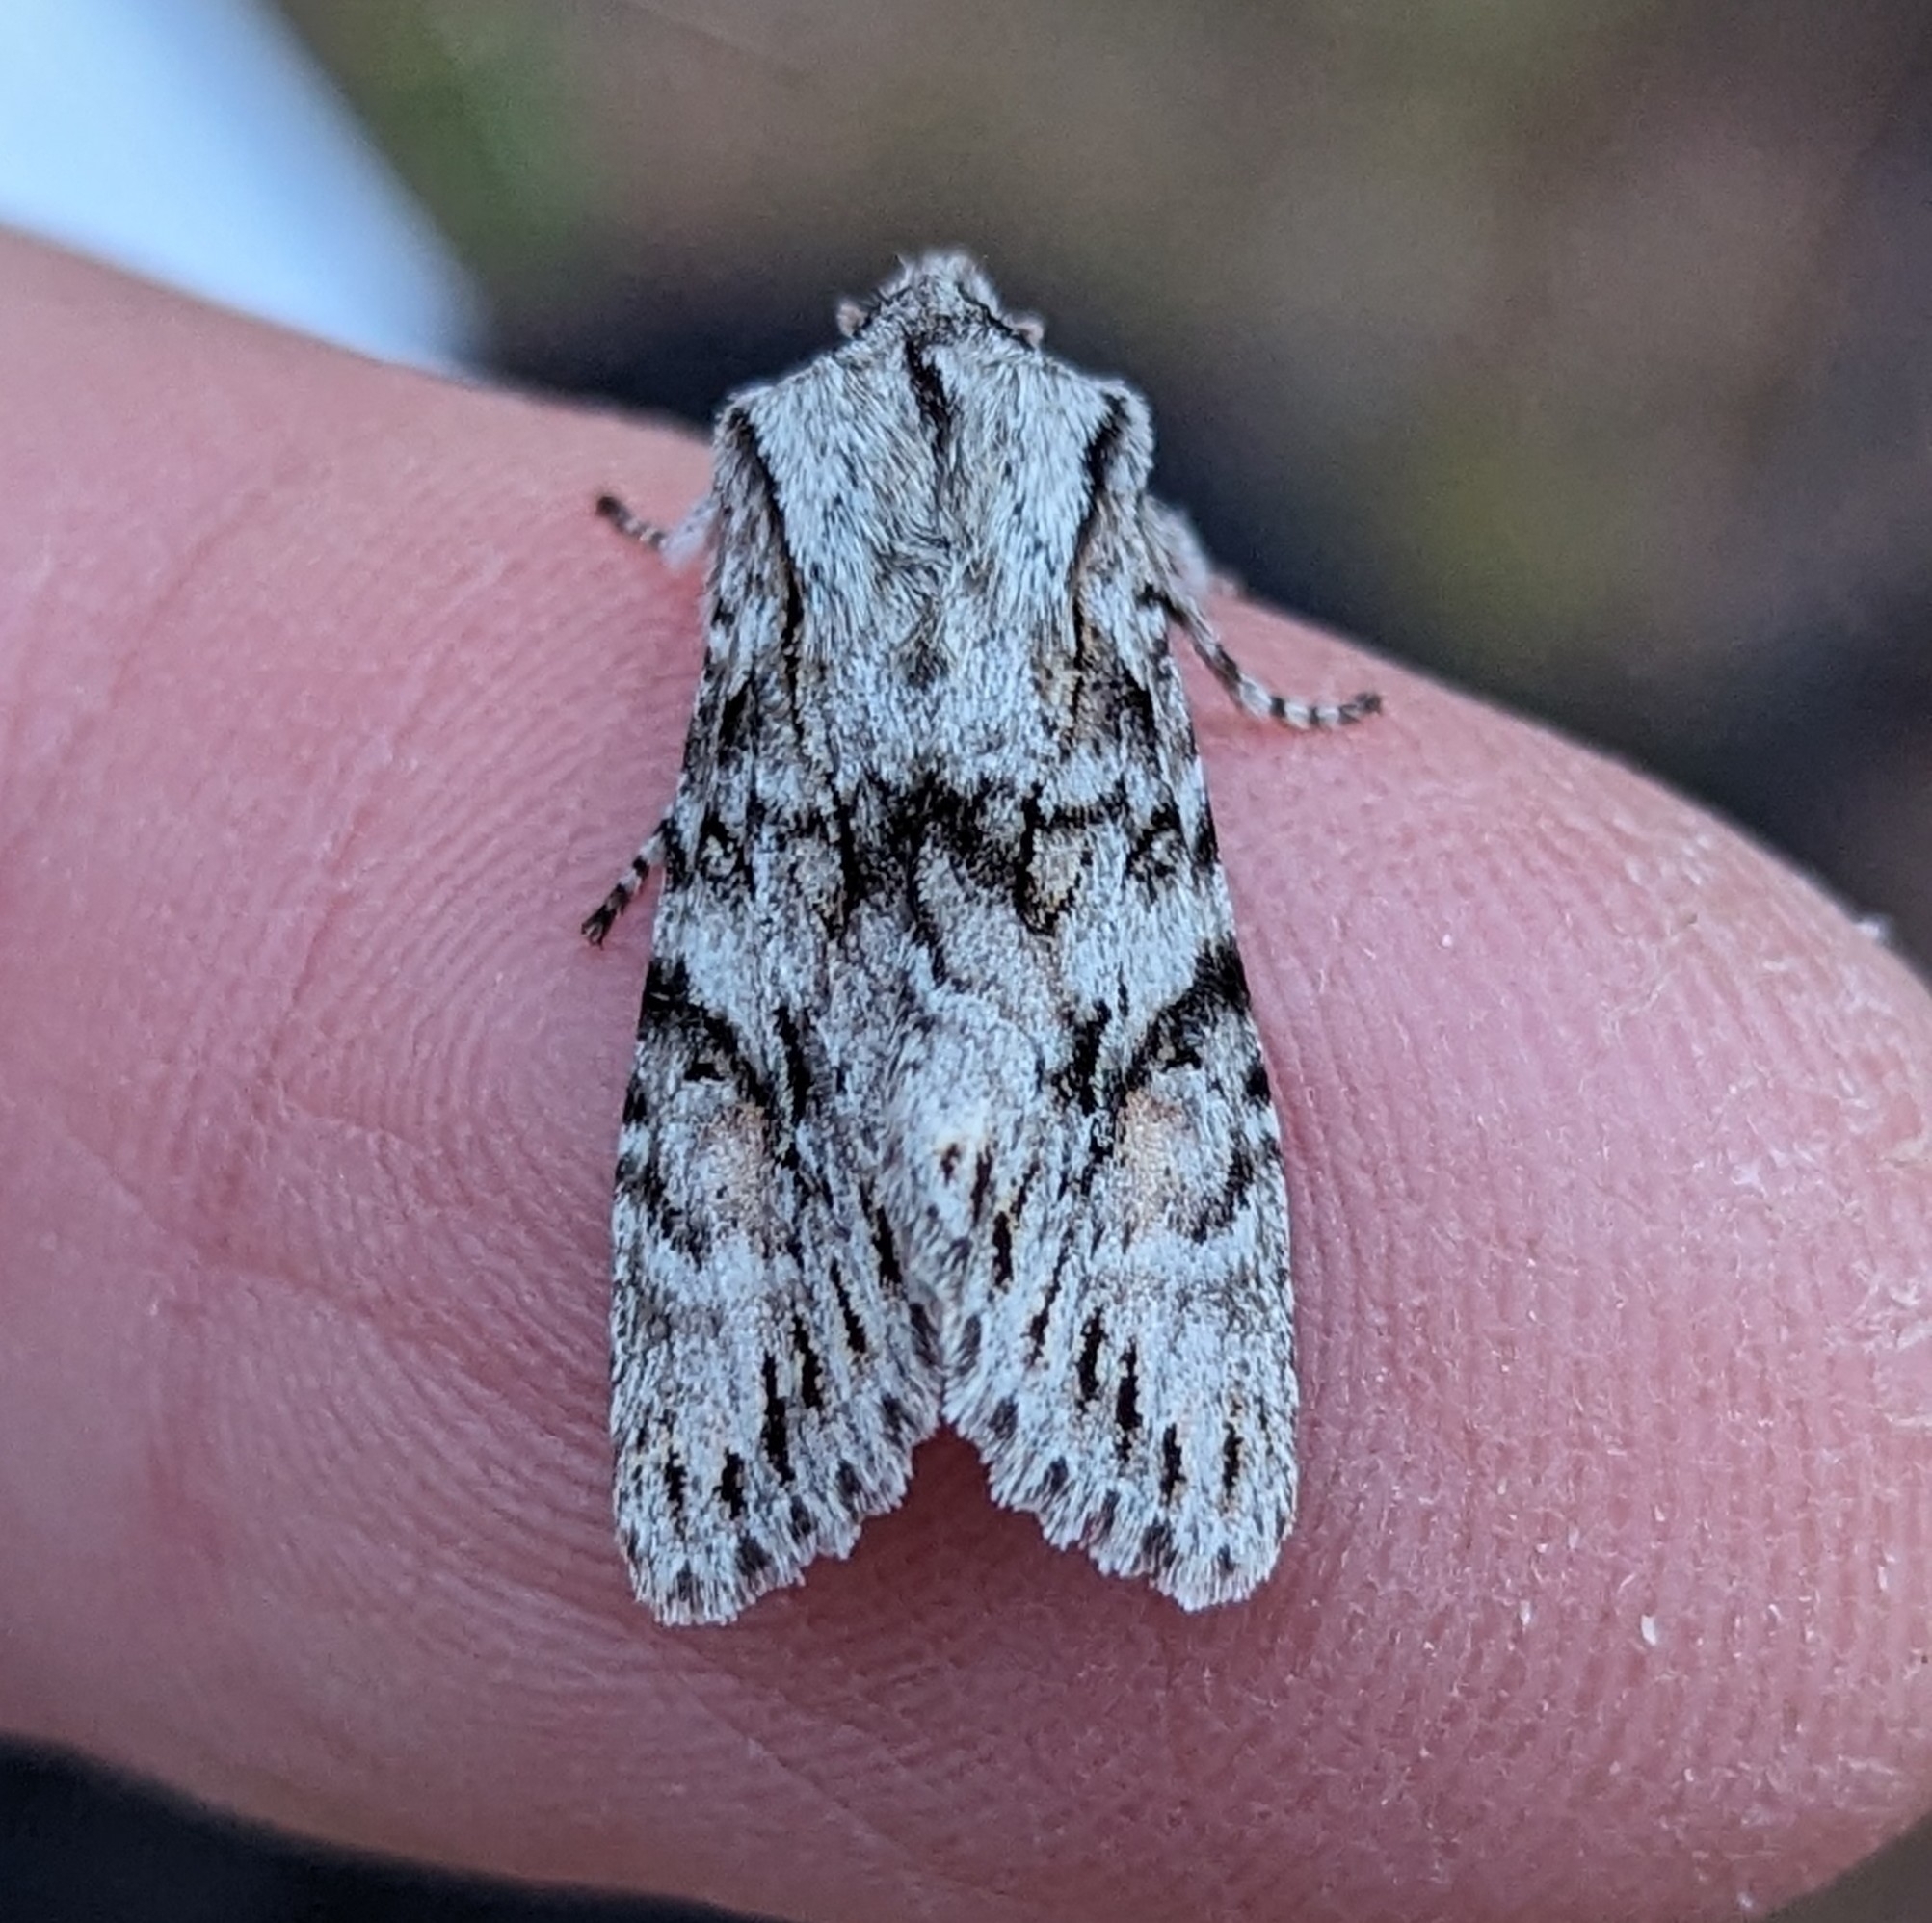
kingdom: Animalia
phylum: Arthropoda
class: Insecta
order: Lepidoptera
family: Noctuidae
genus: Egira
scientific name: Egira simplex
